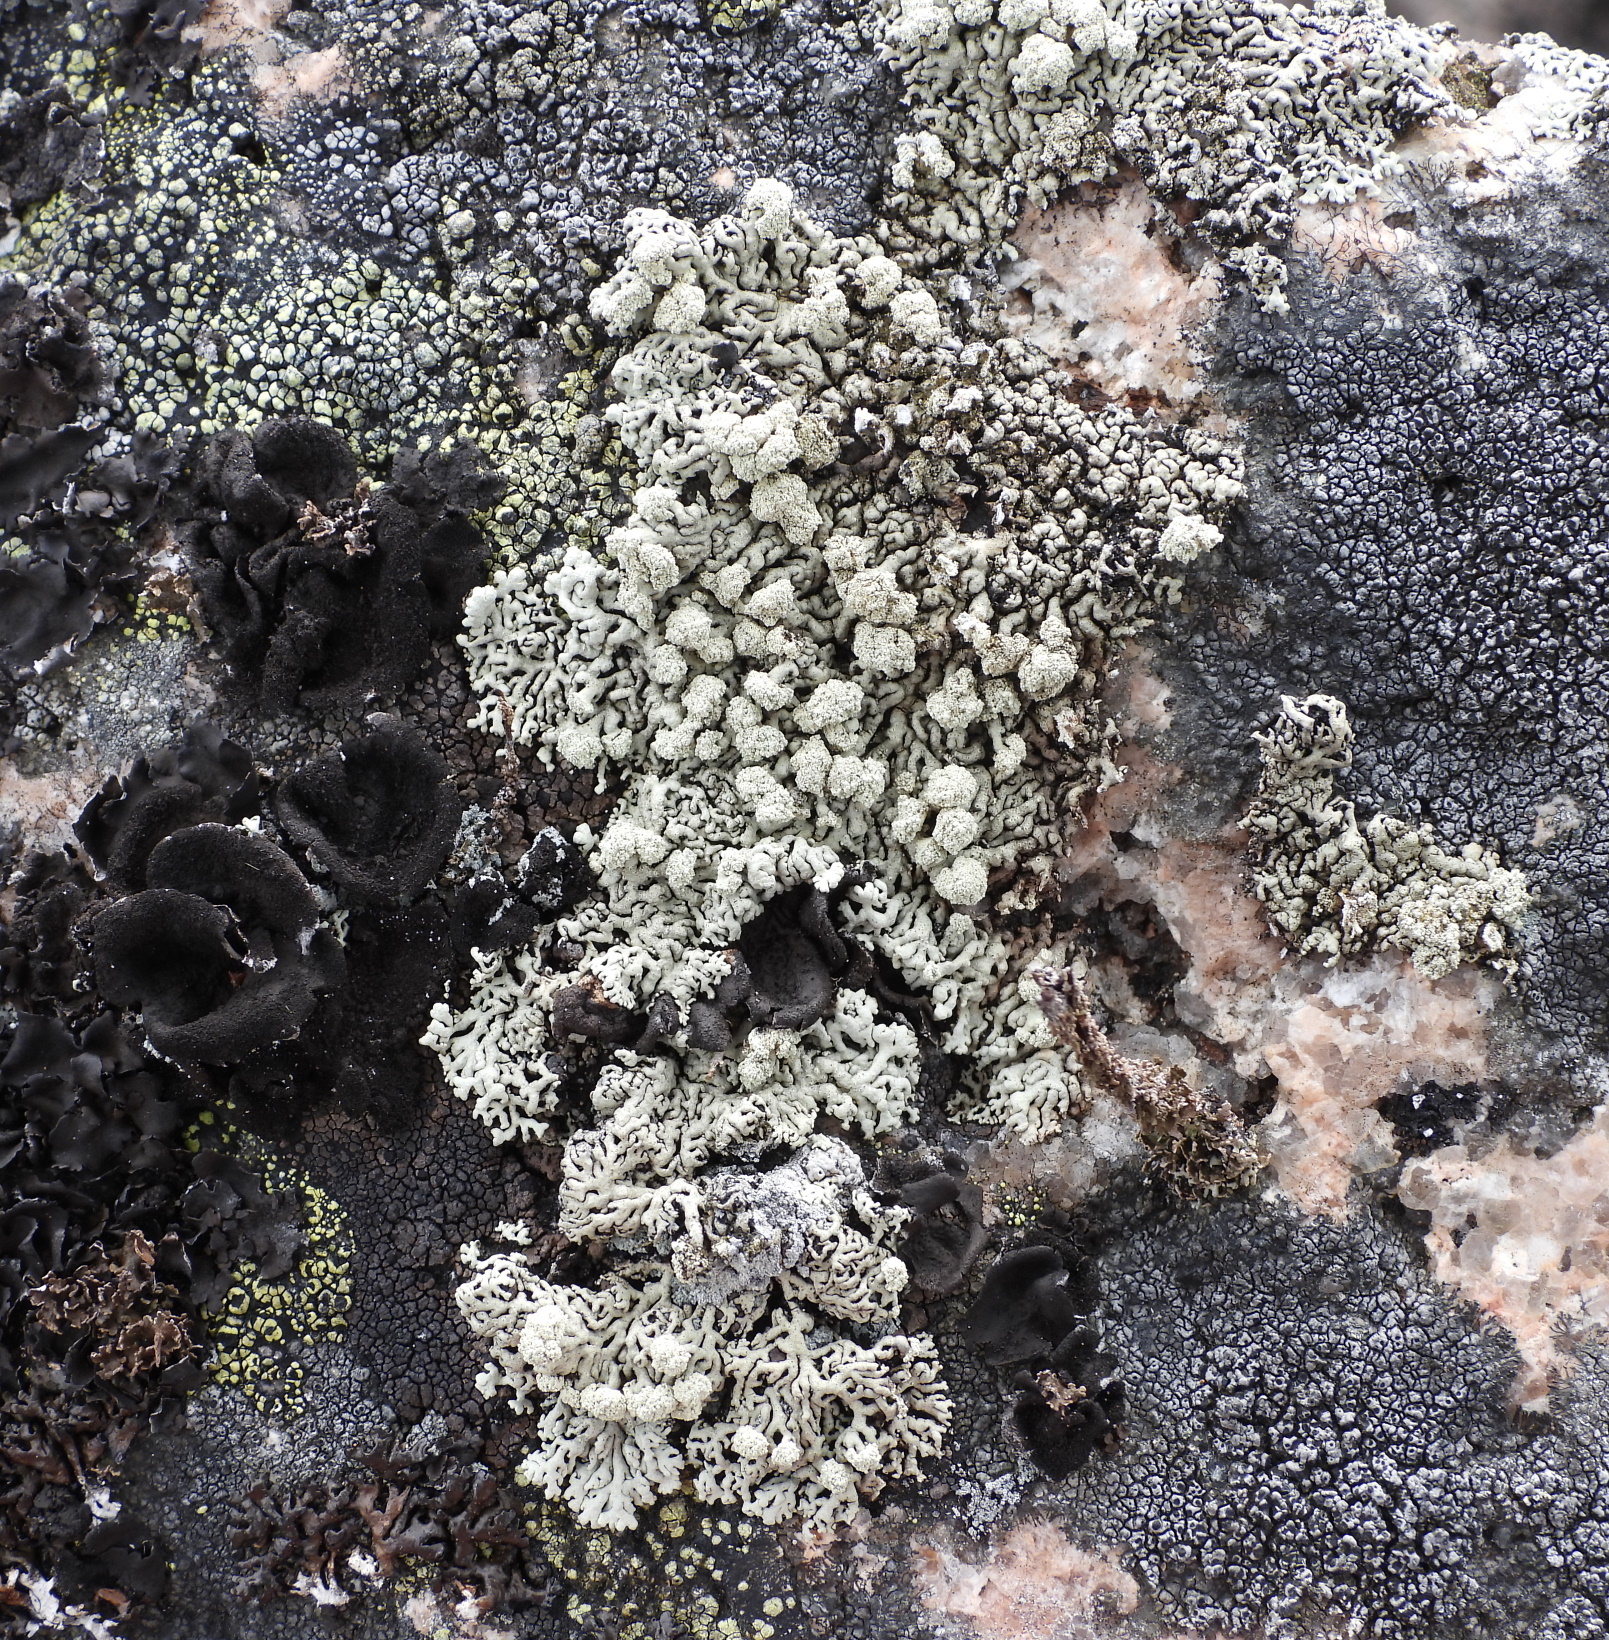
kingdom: Fungi
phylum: Ascomycota
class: Lecanoromycetes
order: Lecanorales
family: Parmeliaceae
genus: Arctoparmelia
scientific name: Arctoparmelia incurva
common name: Bent ring lichen
